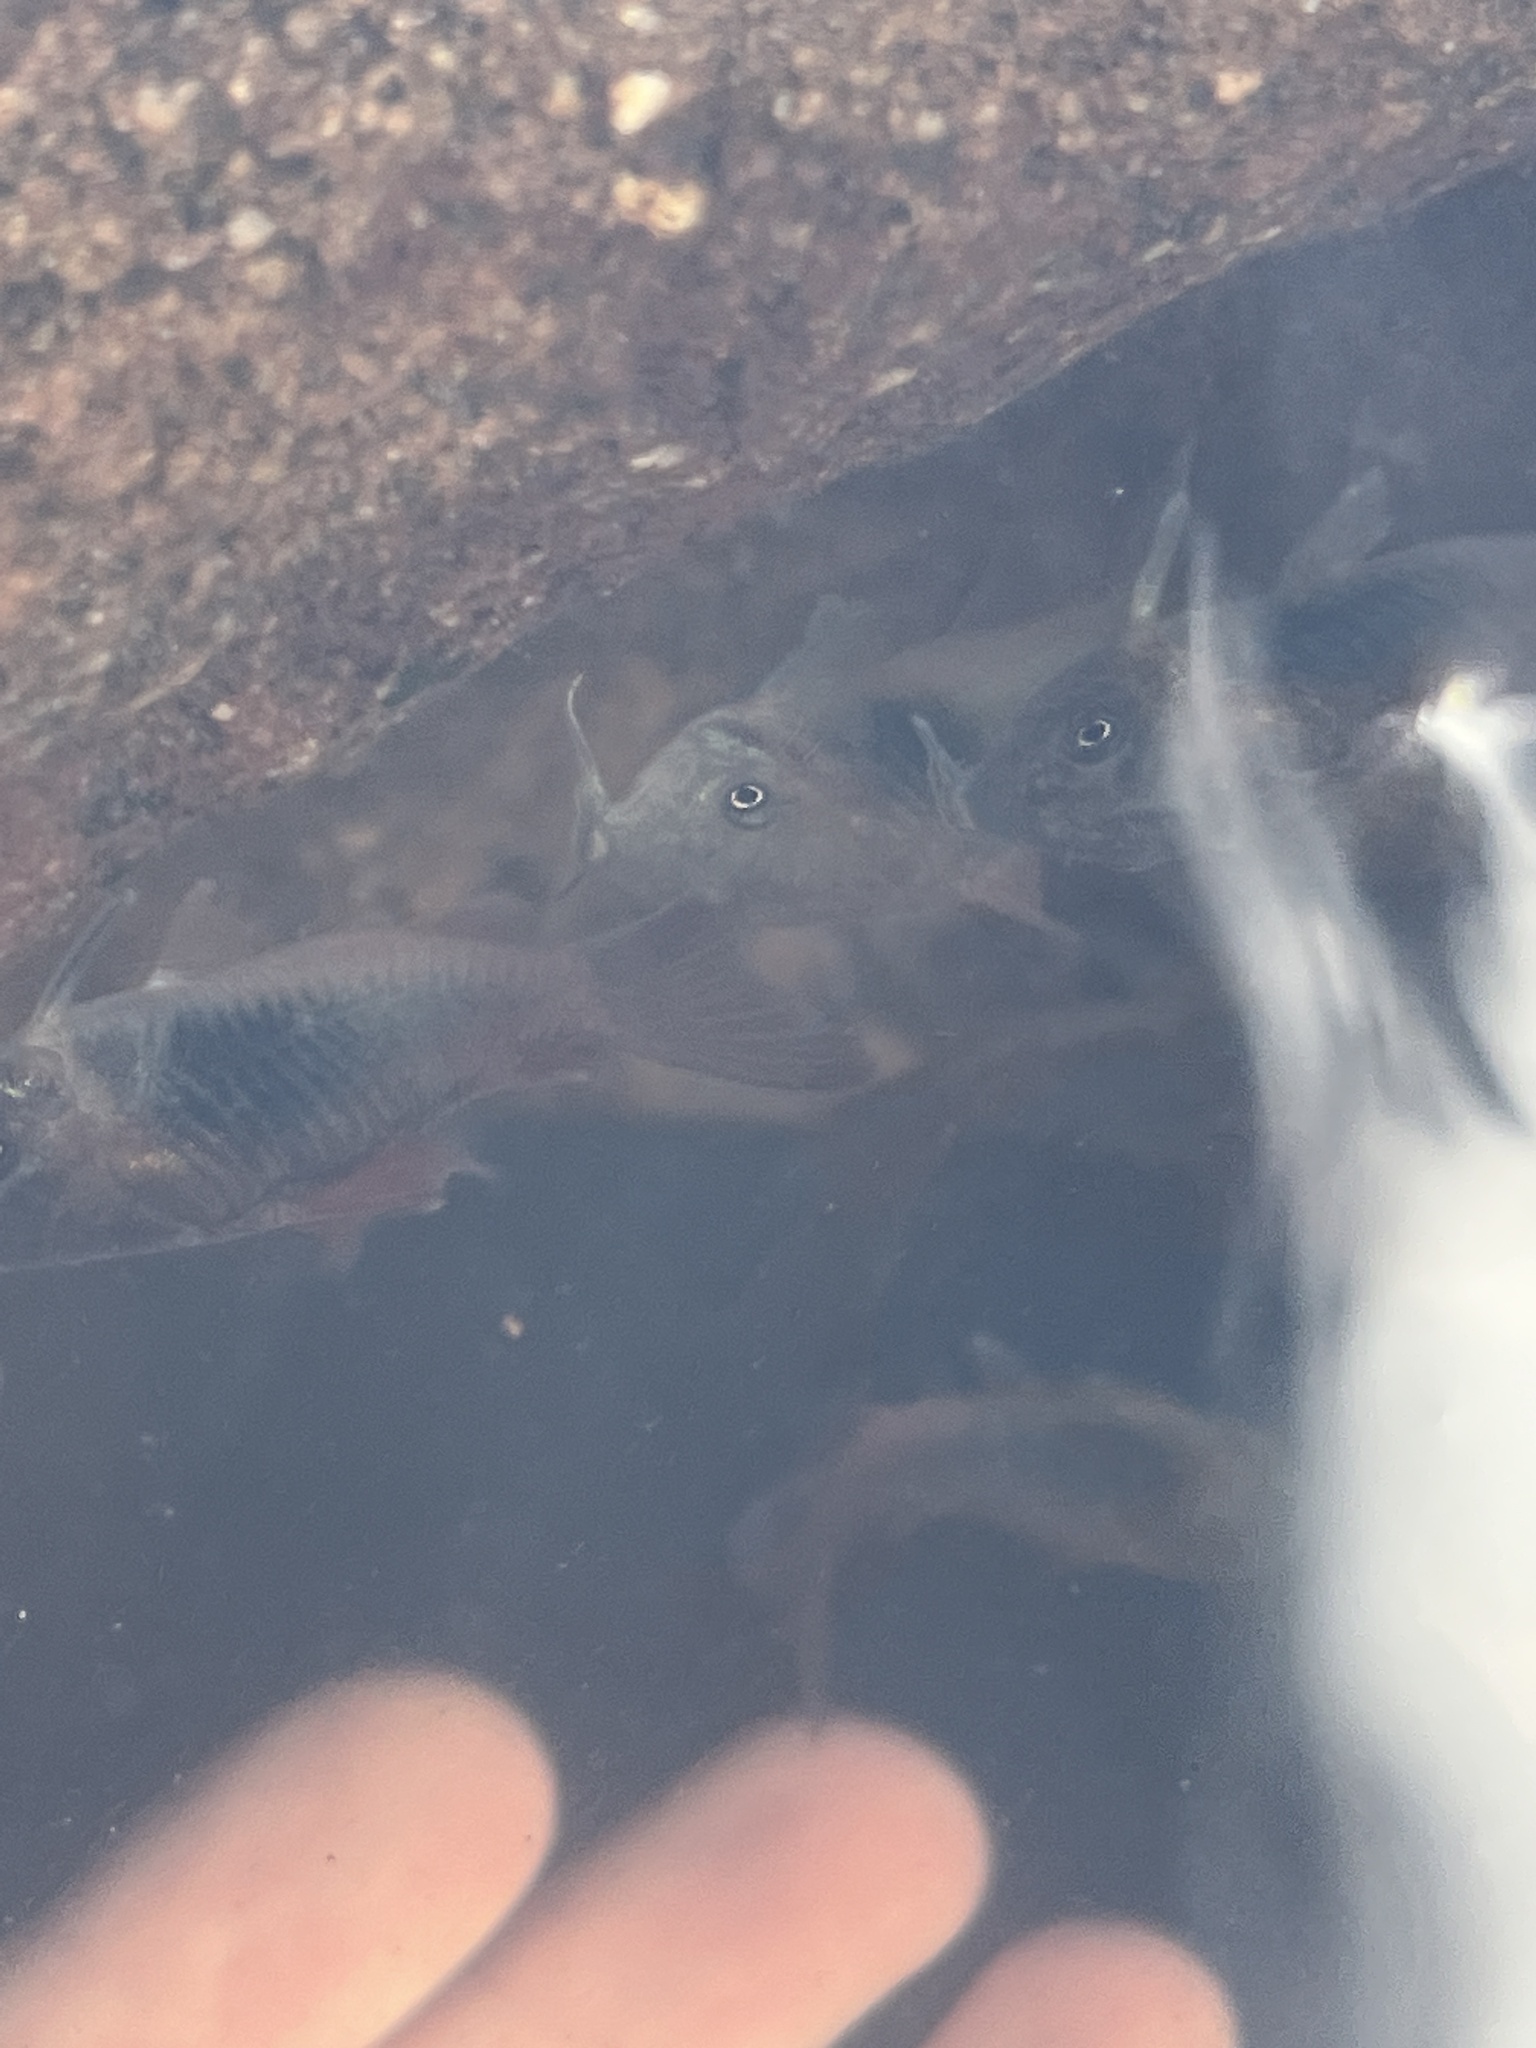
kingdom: Animalia
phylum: Chordata
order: Siluriformes
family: Callichthyidae
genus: Corydoras
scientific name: Corydoras aeneus
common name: Bronze catfish
